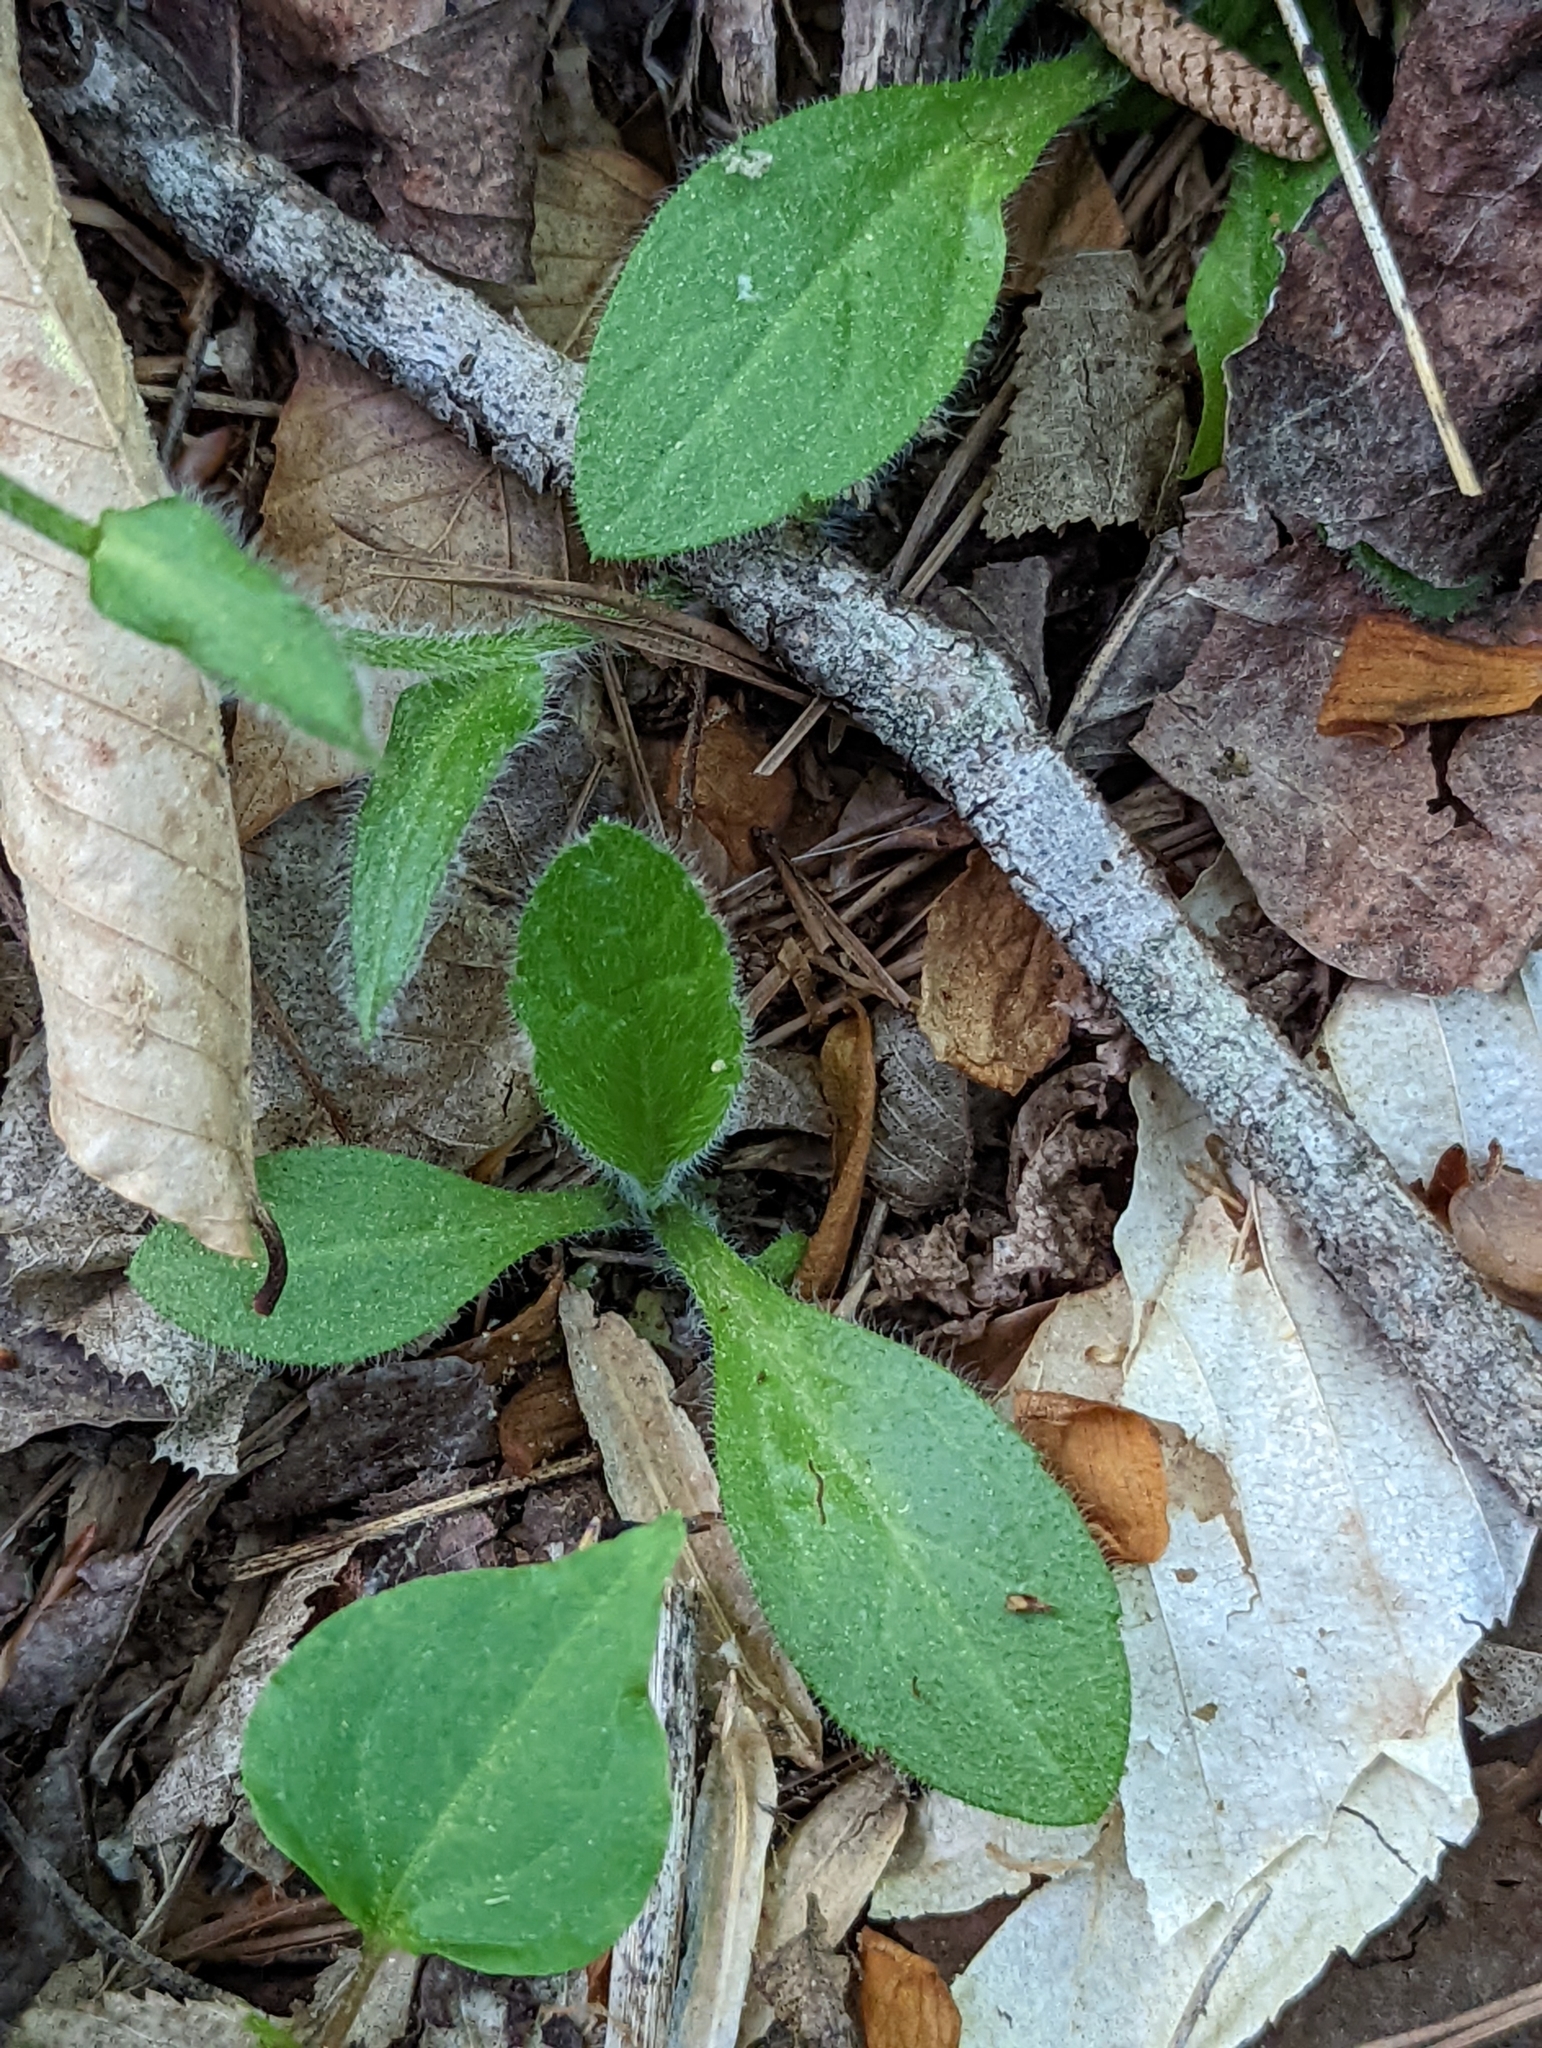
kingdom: Plantae
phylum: Tracheophyta
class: Magnoliopsida
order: Asterales
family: Asteraceae
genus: Erigeron
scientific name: Erigeron pulchellus
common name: Hairy fleabane
